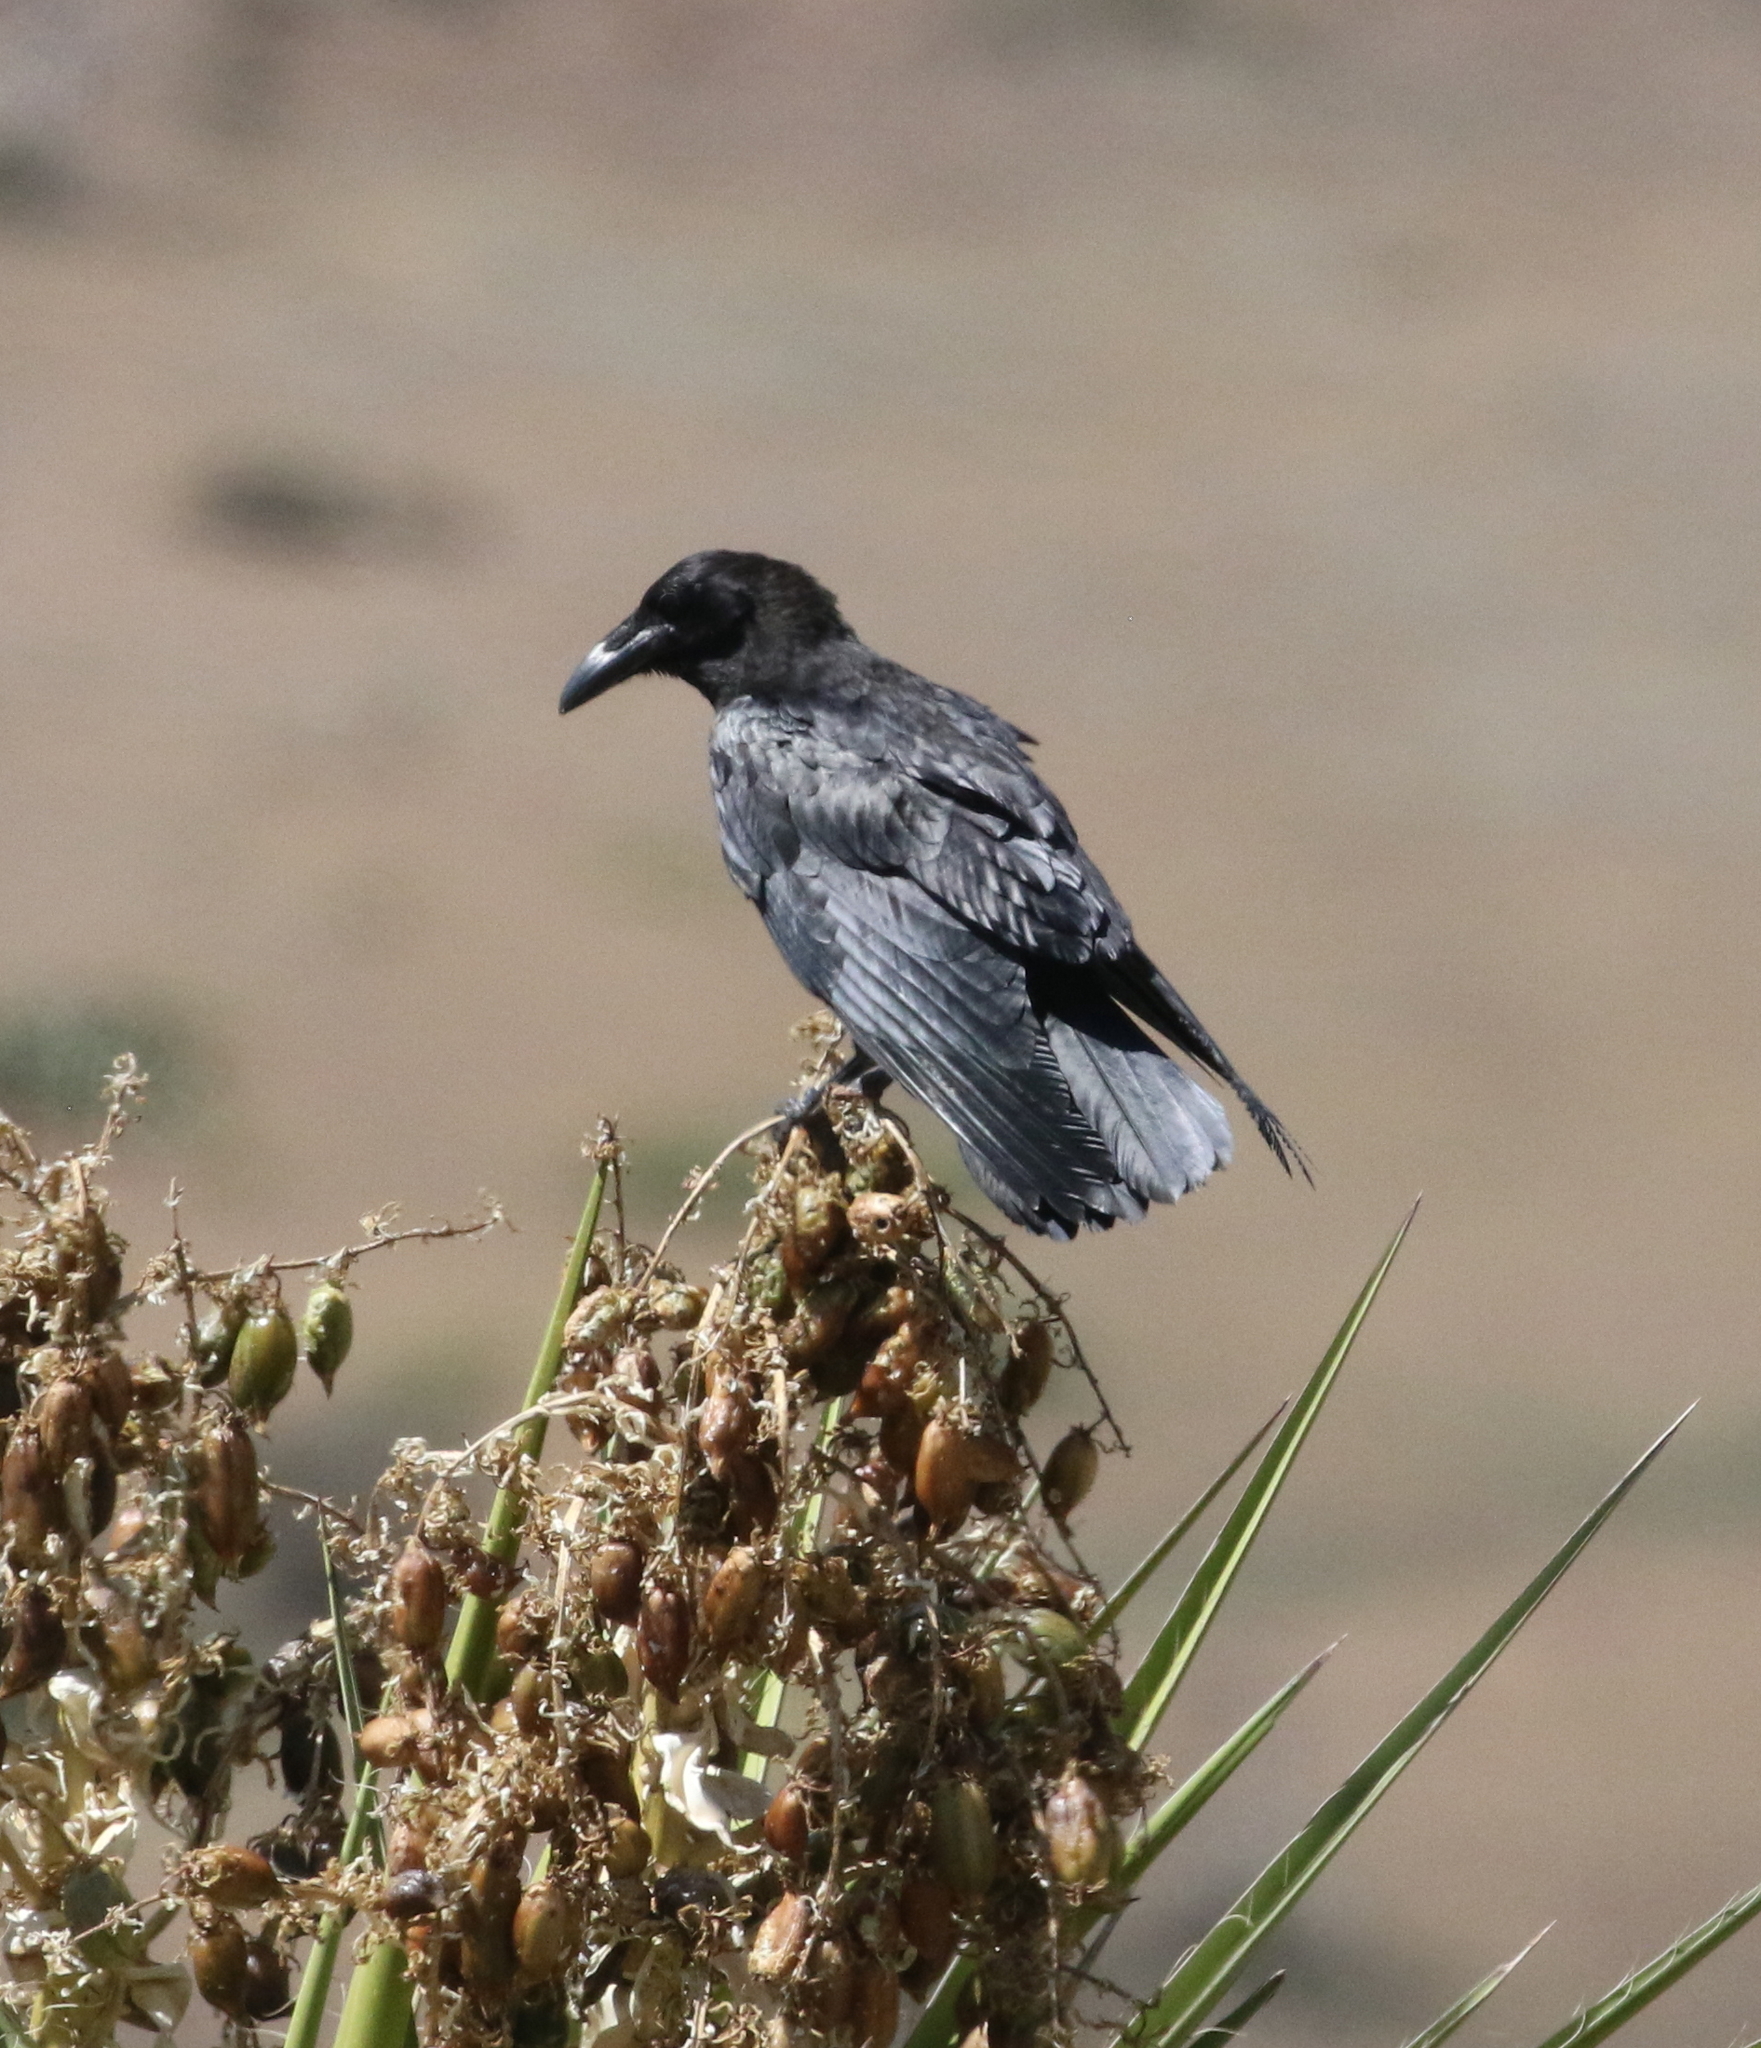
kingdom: Animalia
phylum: Chordata
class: Aves
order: Passeriformes
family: Corvidae
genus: Corvus
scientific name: Corvus corax
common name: Common raven
